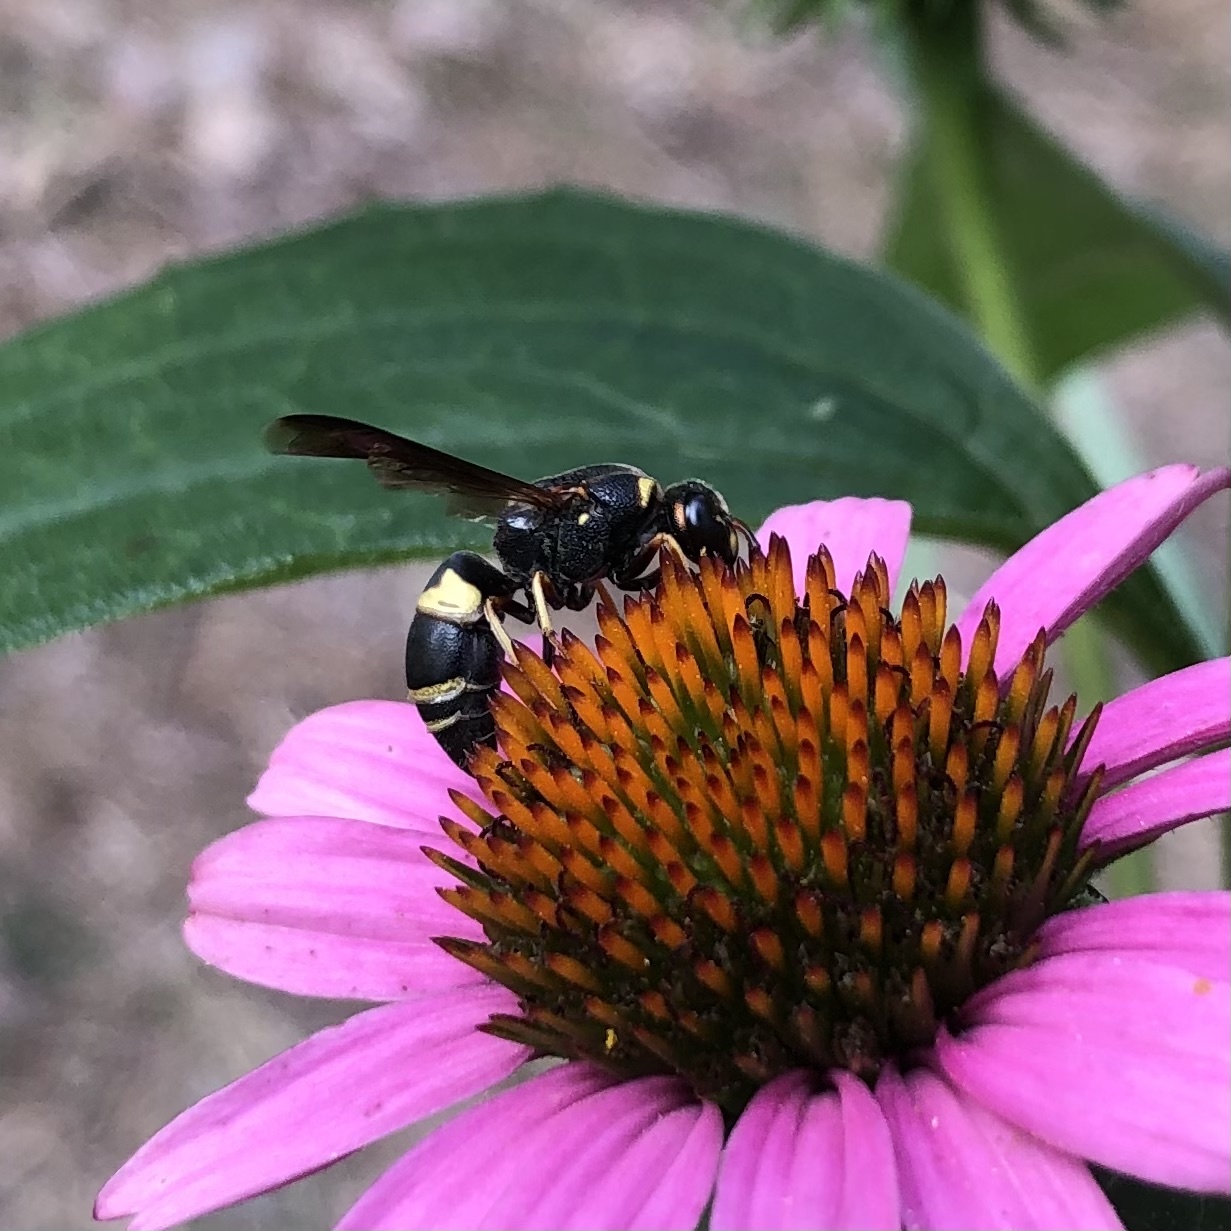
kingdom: Animalia
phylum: Arthropoda
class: Insecta
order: Hymenoptera
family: Eumenidae
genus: Euodynerus
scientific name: Euodynerus hidalgo
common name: Wasp
